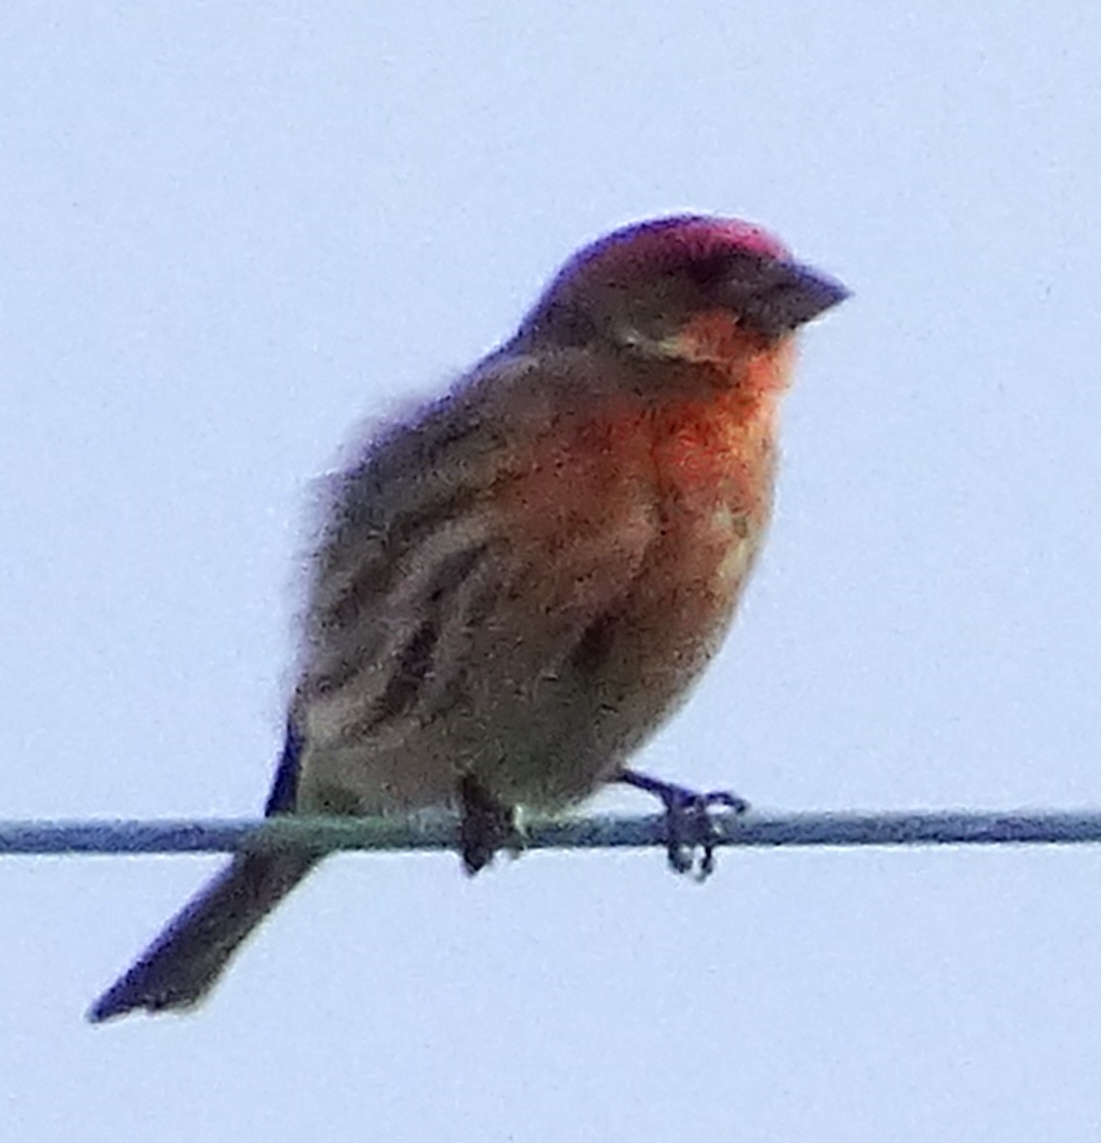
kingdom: Animalia
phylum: Chordata
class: Aves
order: Passeriformes
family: Fringillidae
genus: Haemorhous
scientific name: Haemorhous mexicanus
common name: House finch
